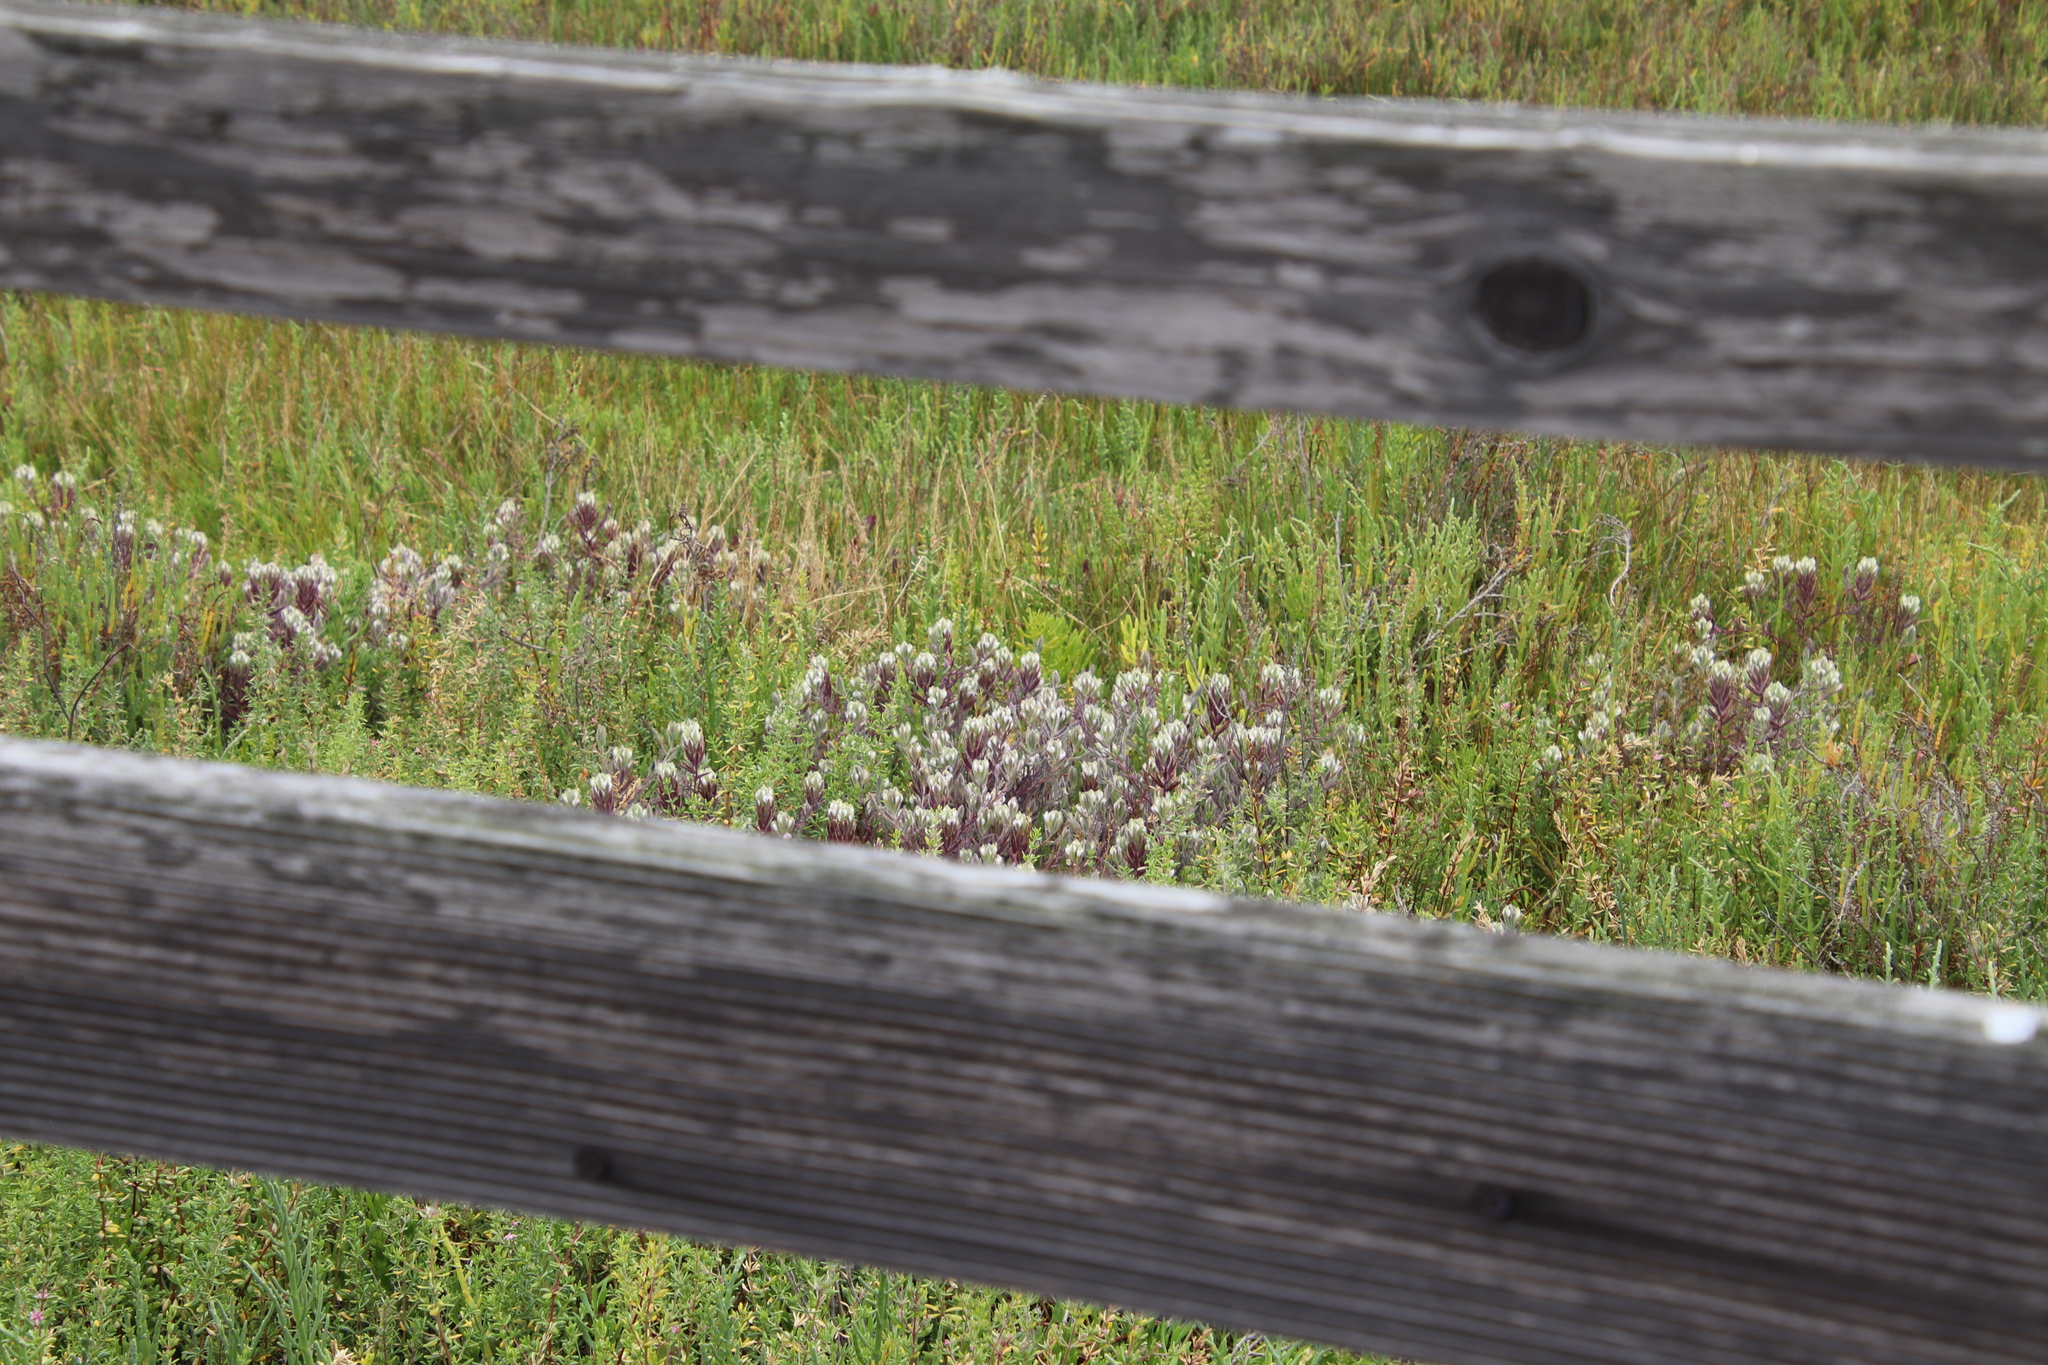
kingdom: Plantae
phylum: Tracheophyta
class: Magnoliopsida
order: Lamiales
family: Orobanchaceae
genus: Chloropyron
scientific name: Chloropyron maritimum
